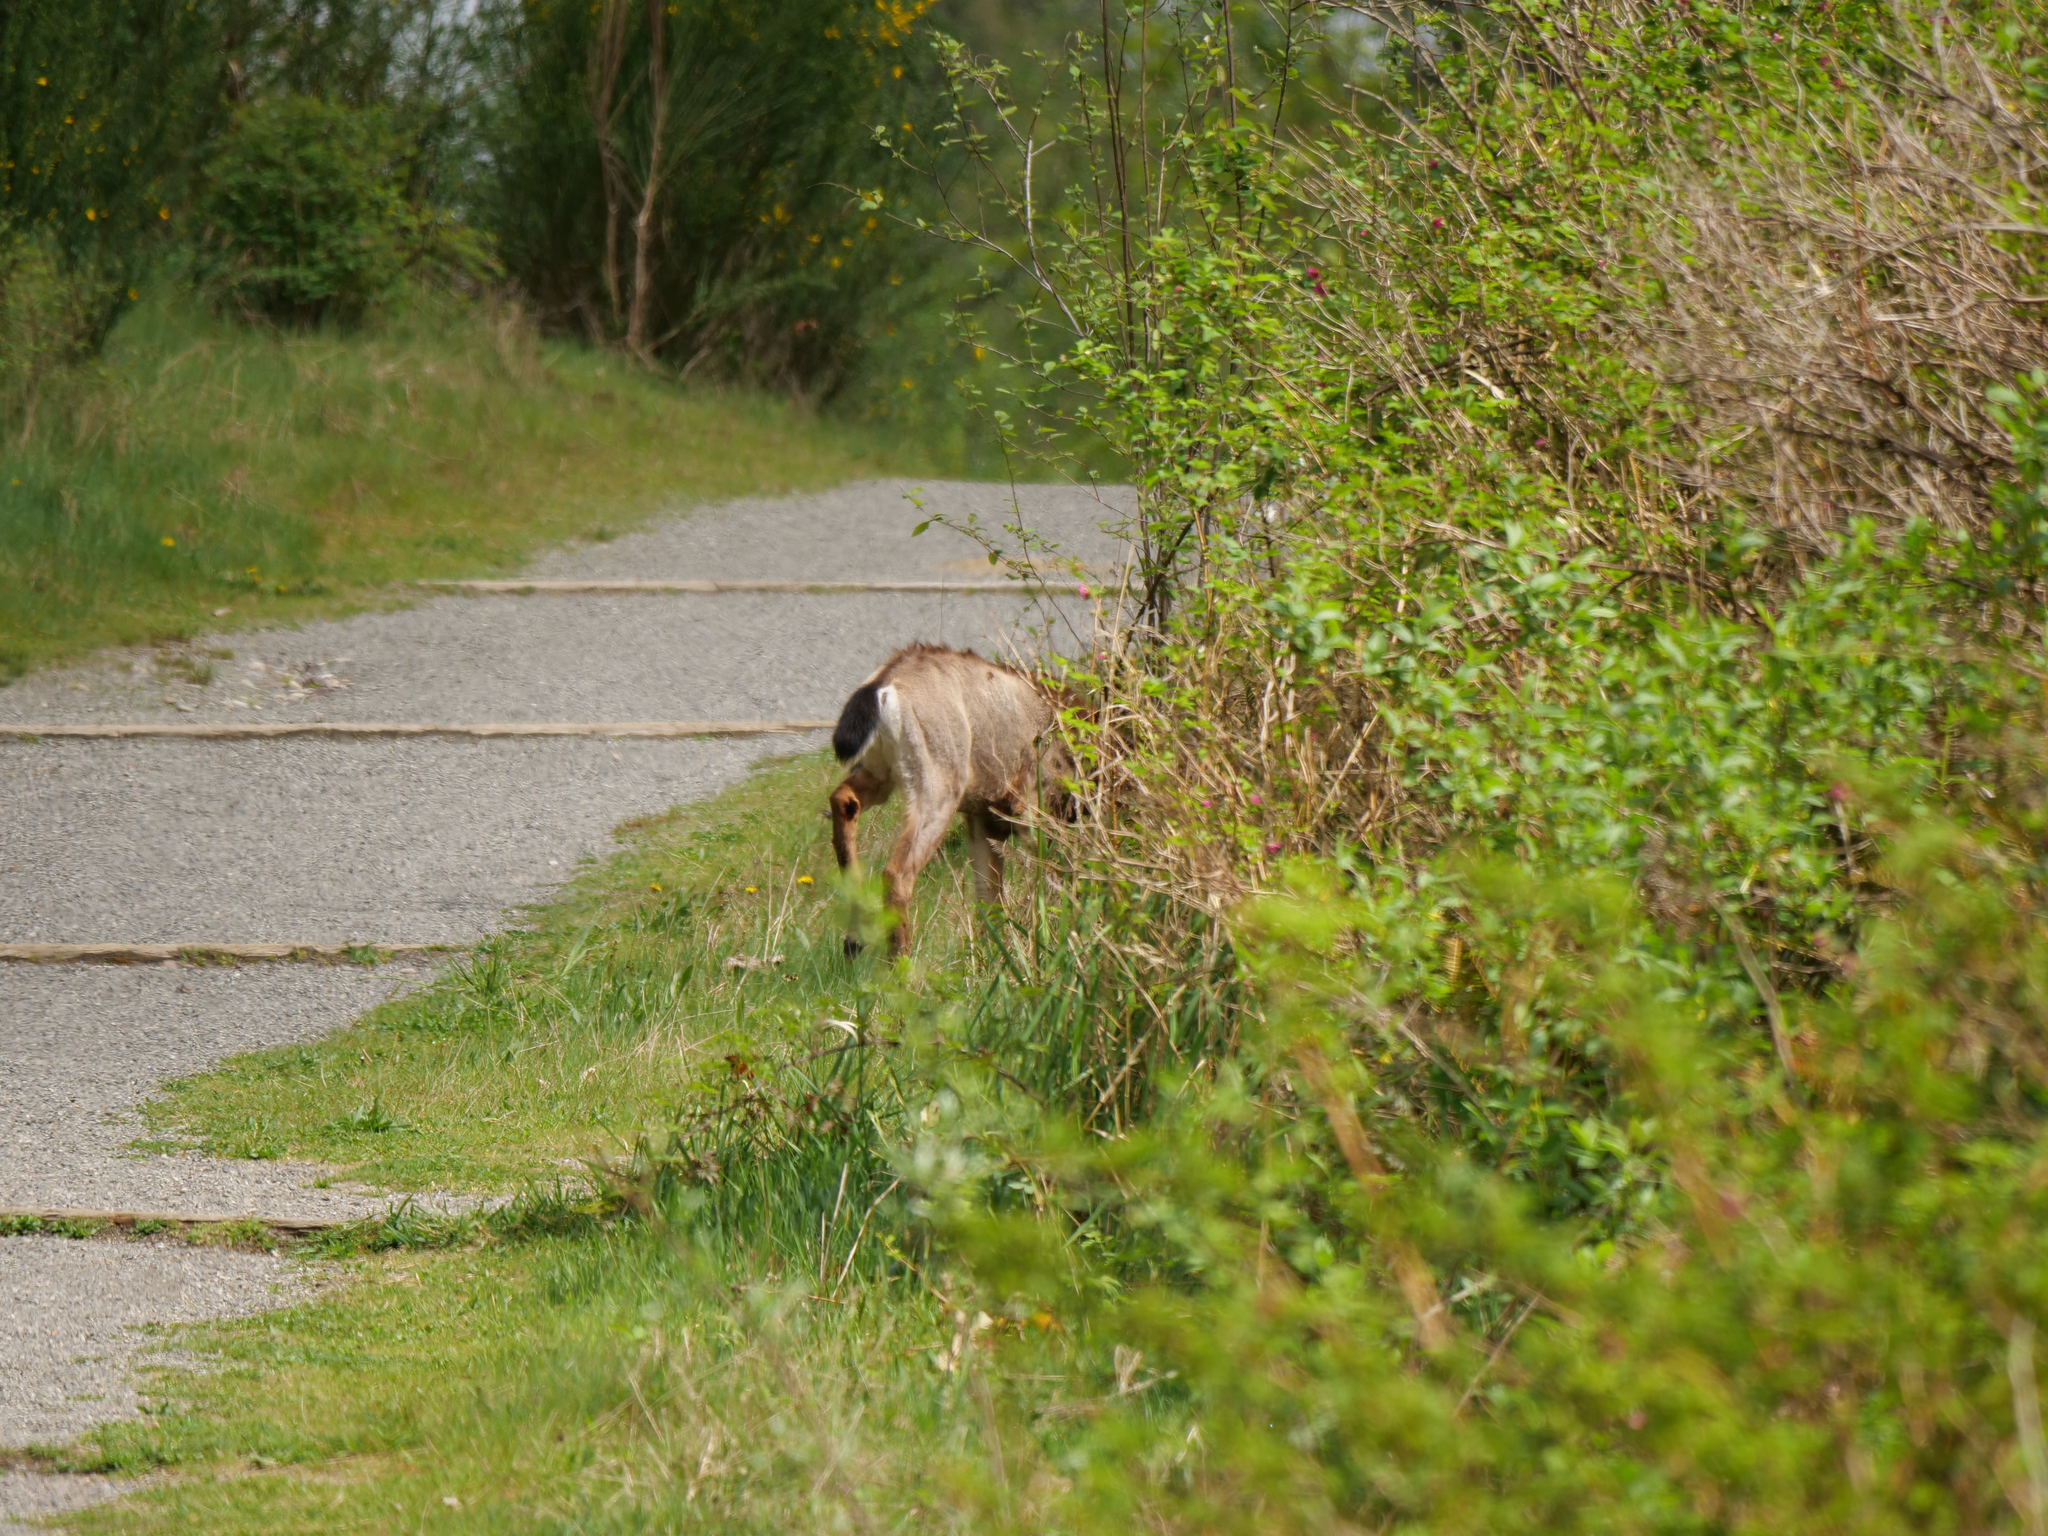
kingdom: Animalia
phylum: Chordata
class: Mammalia
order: Artiodactyla
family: Cervidae
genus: Odocoileus
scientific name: Odocoileus hemionus
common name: Mule deer
